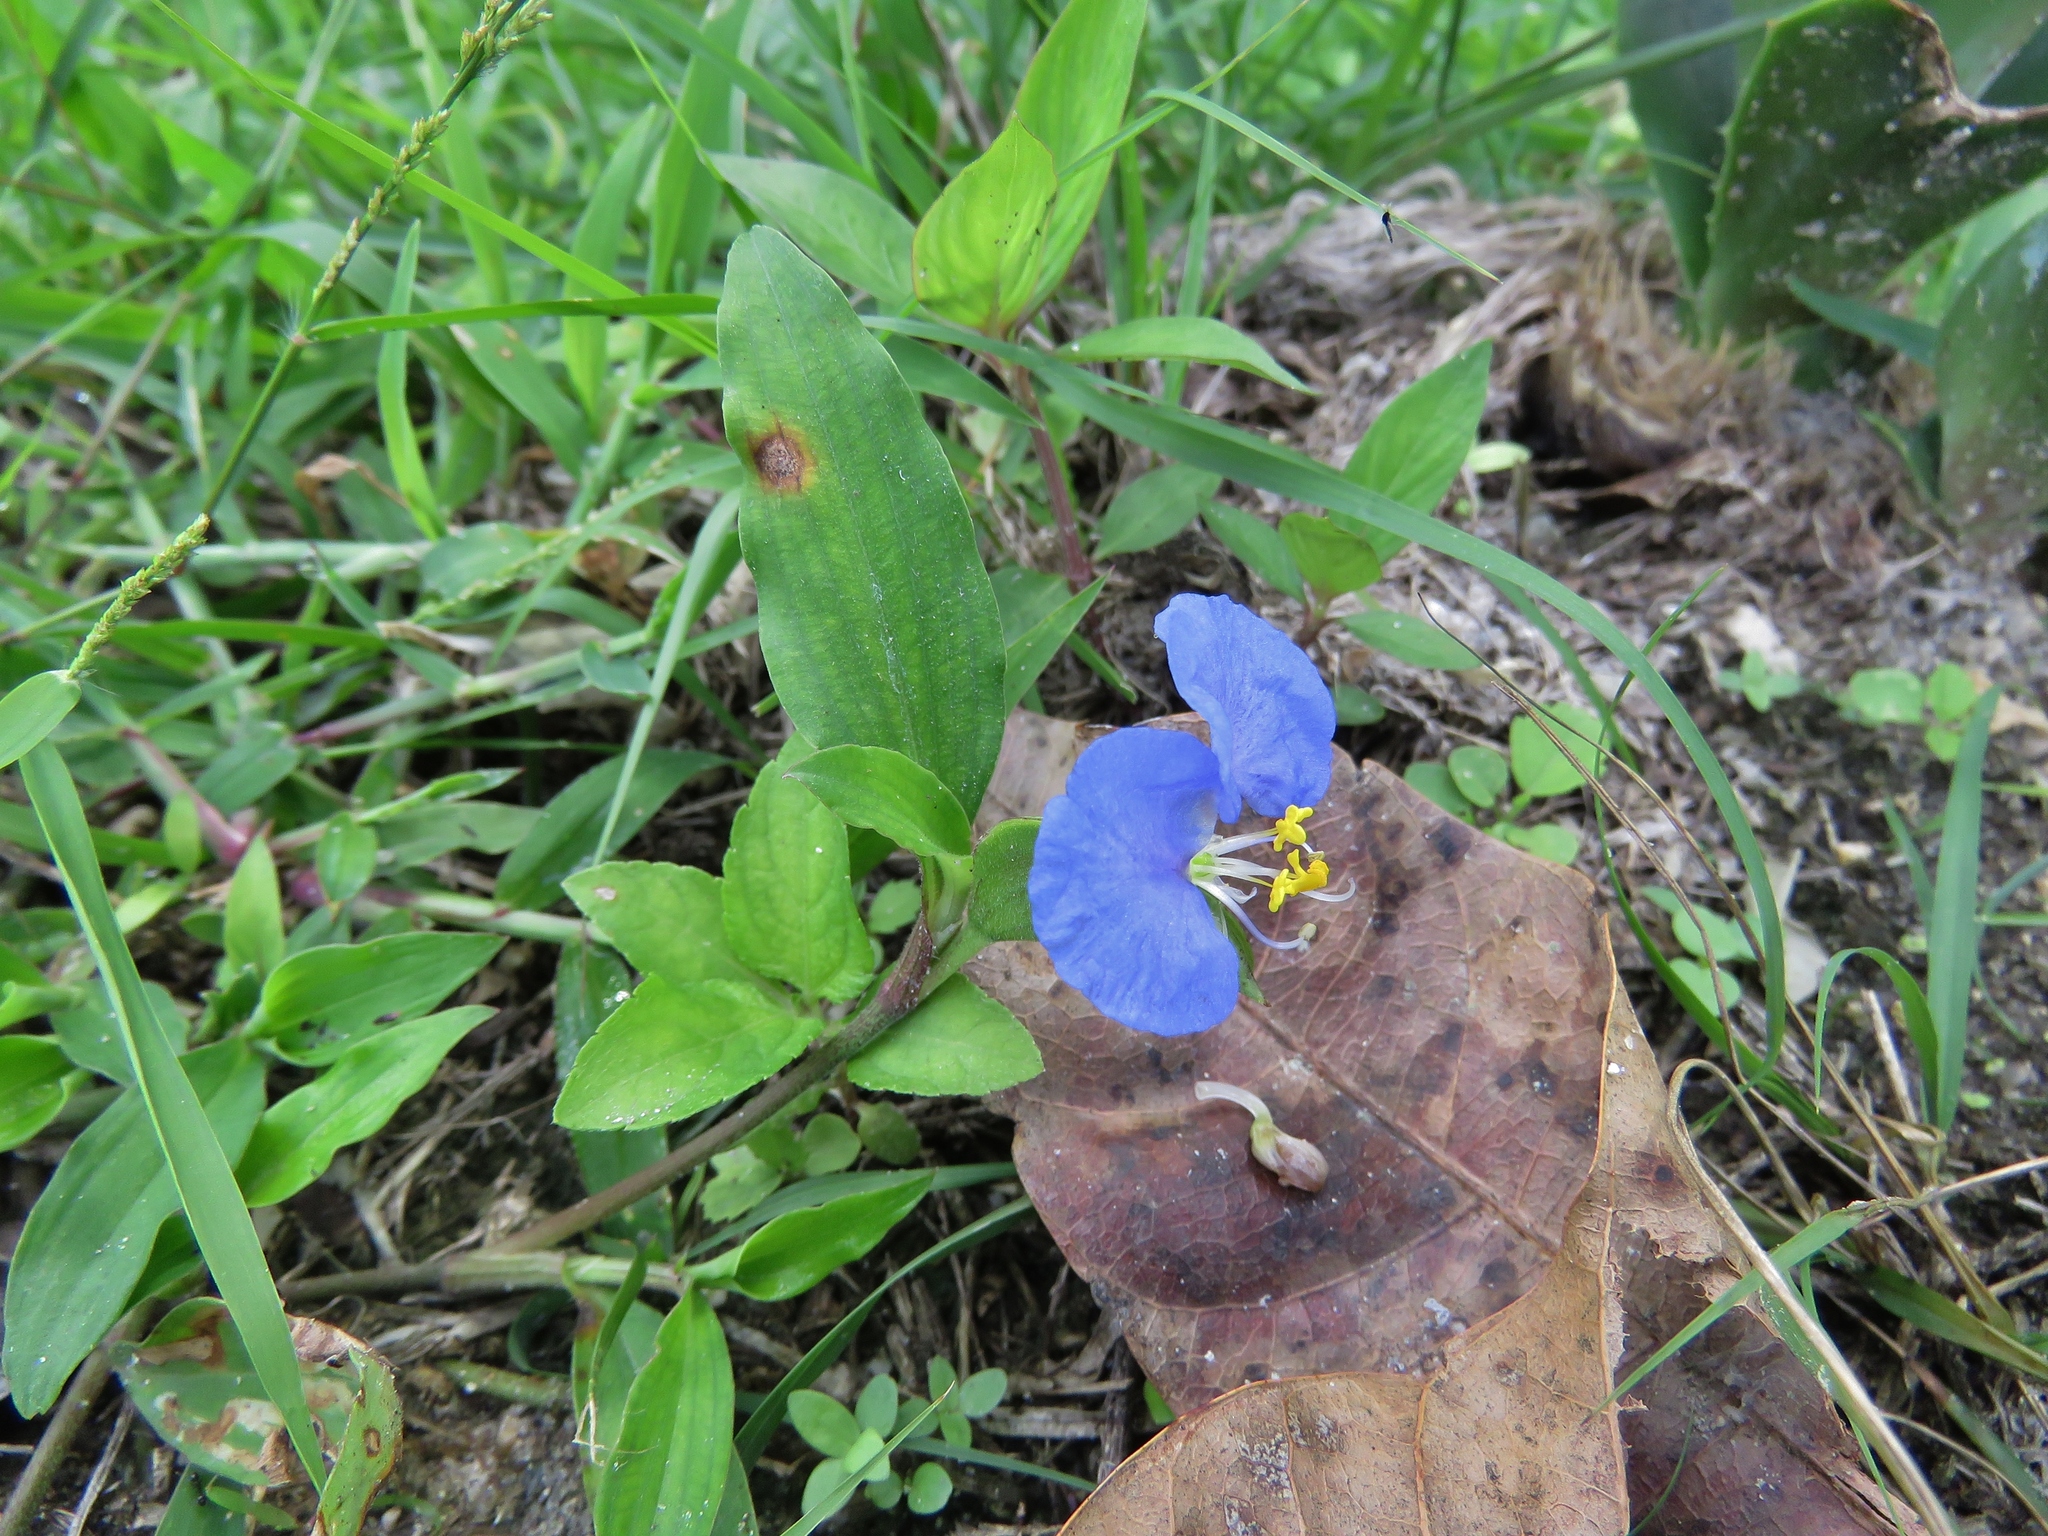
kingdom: Plantae
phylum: Tracheophyta
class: Liliopsida
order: Commelinales
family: Commelinaceae
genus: Commelina
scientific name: Commelina erecta
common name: Blousel blommetjie
